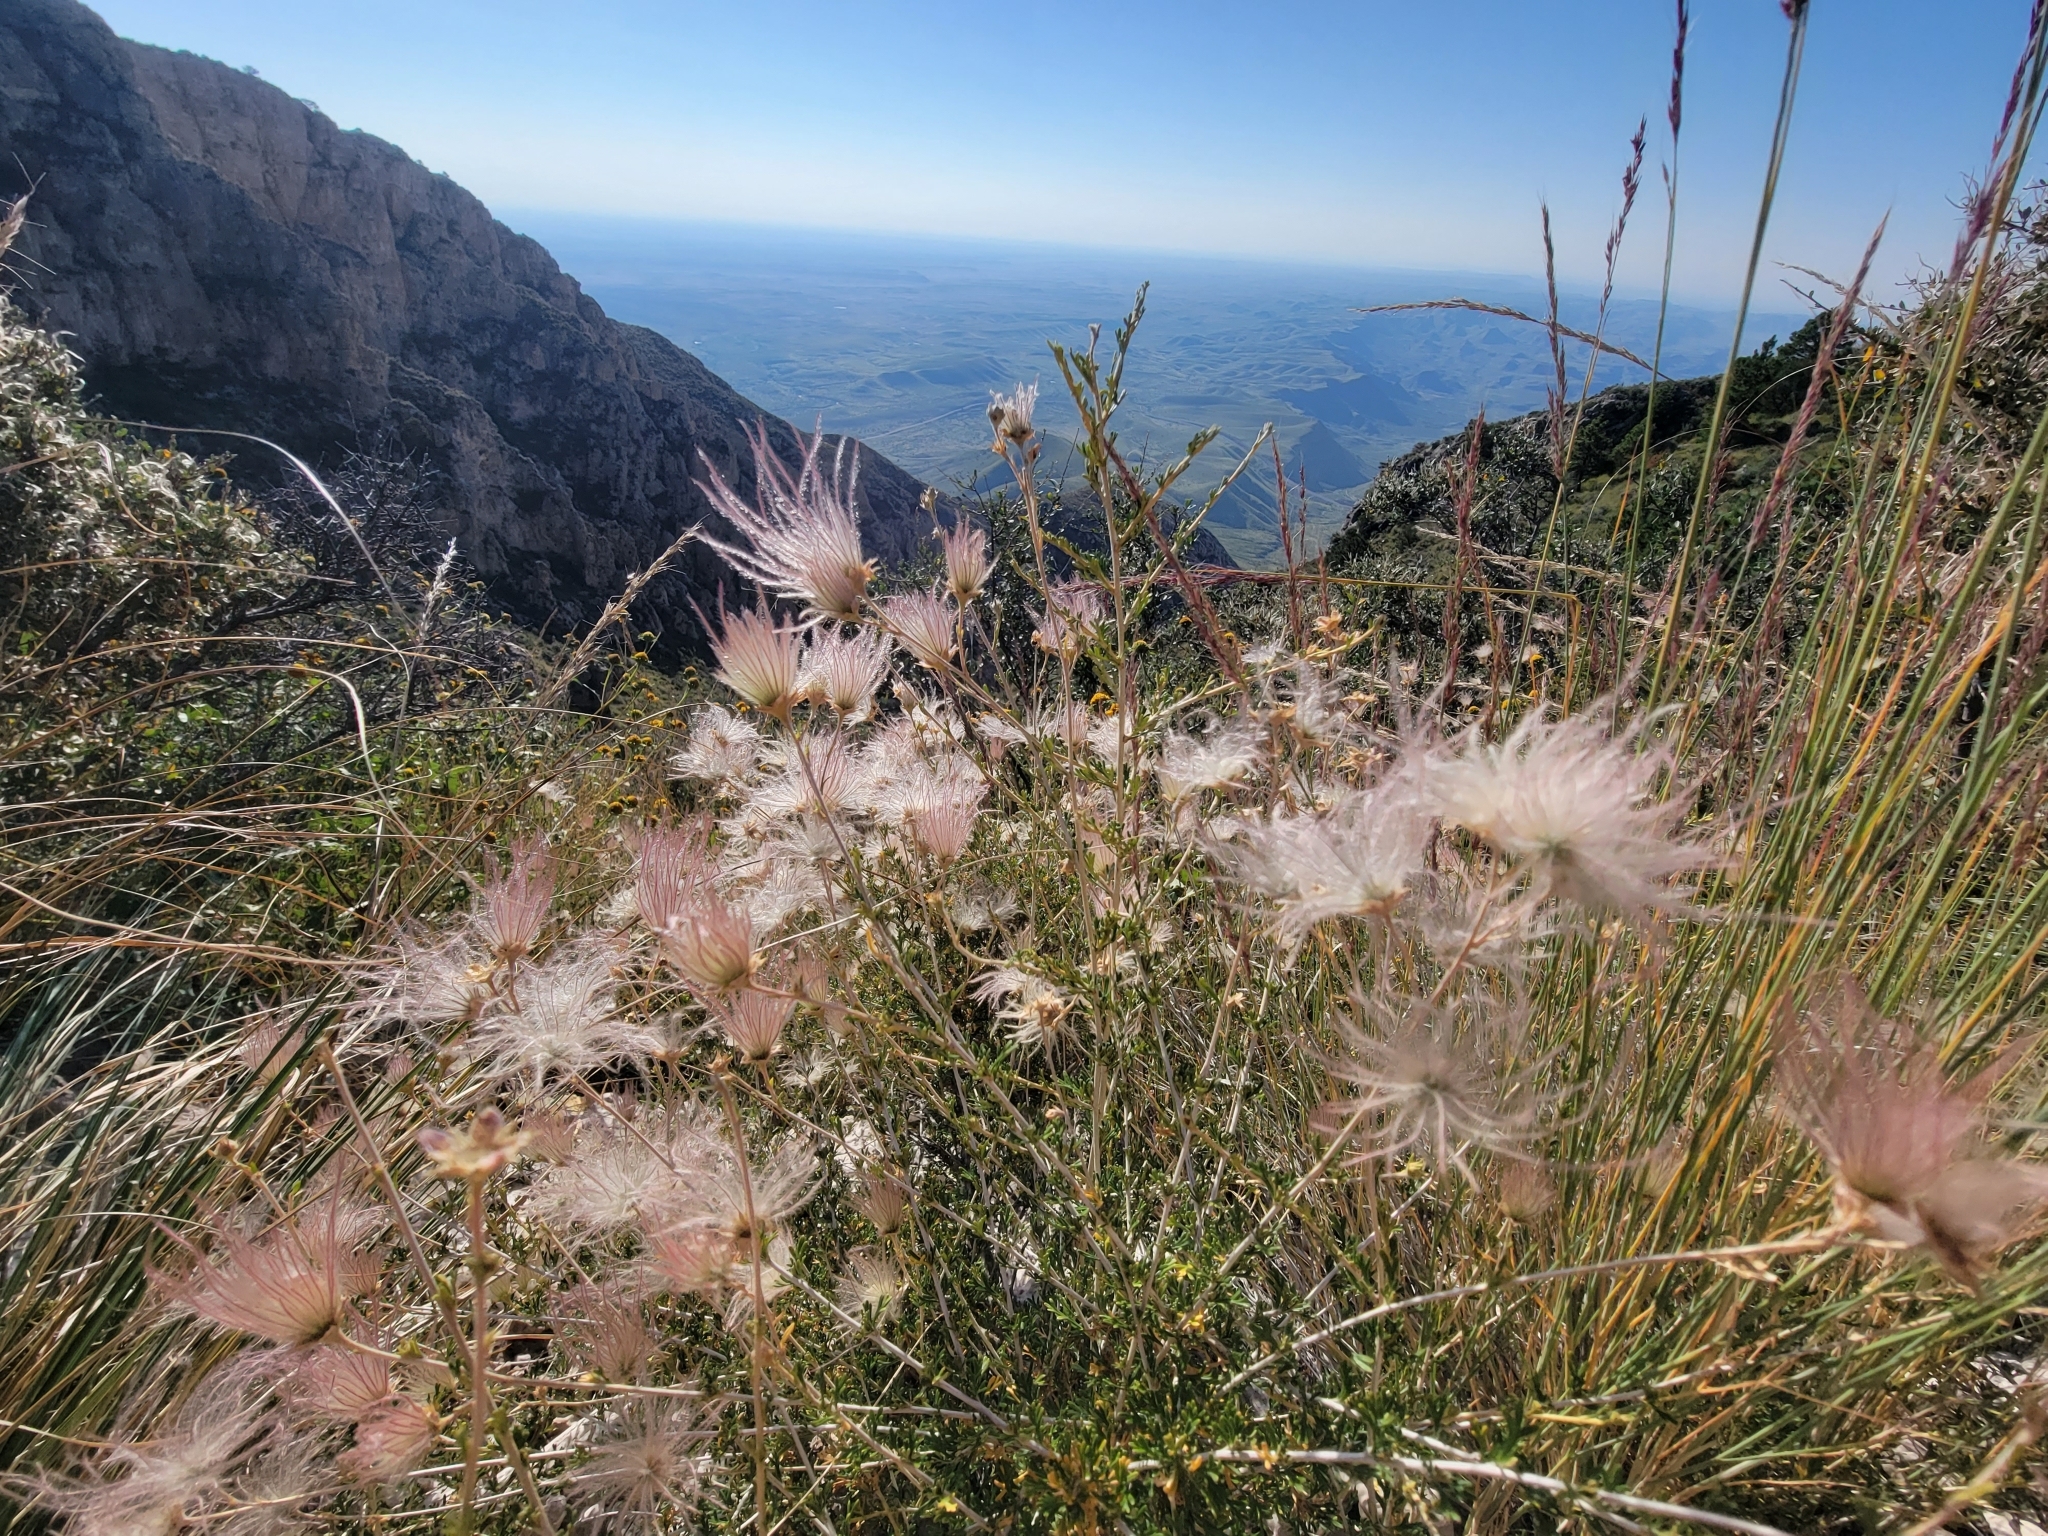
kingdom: Plantae
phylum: Tracheophyta
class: Magnoliopsida
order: Rosales
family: Rosaceae
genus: Fallugia
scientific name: Fallugia paradoxa
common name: Apache-plume
